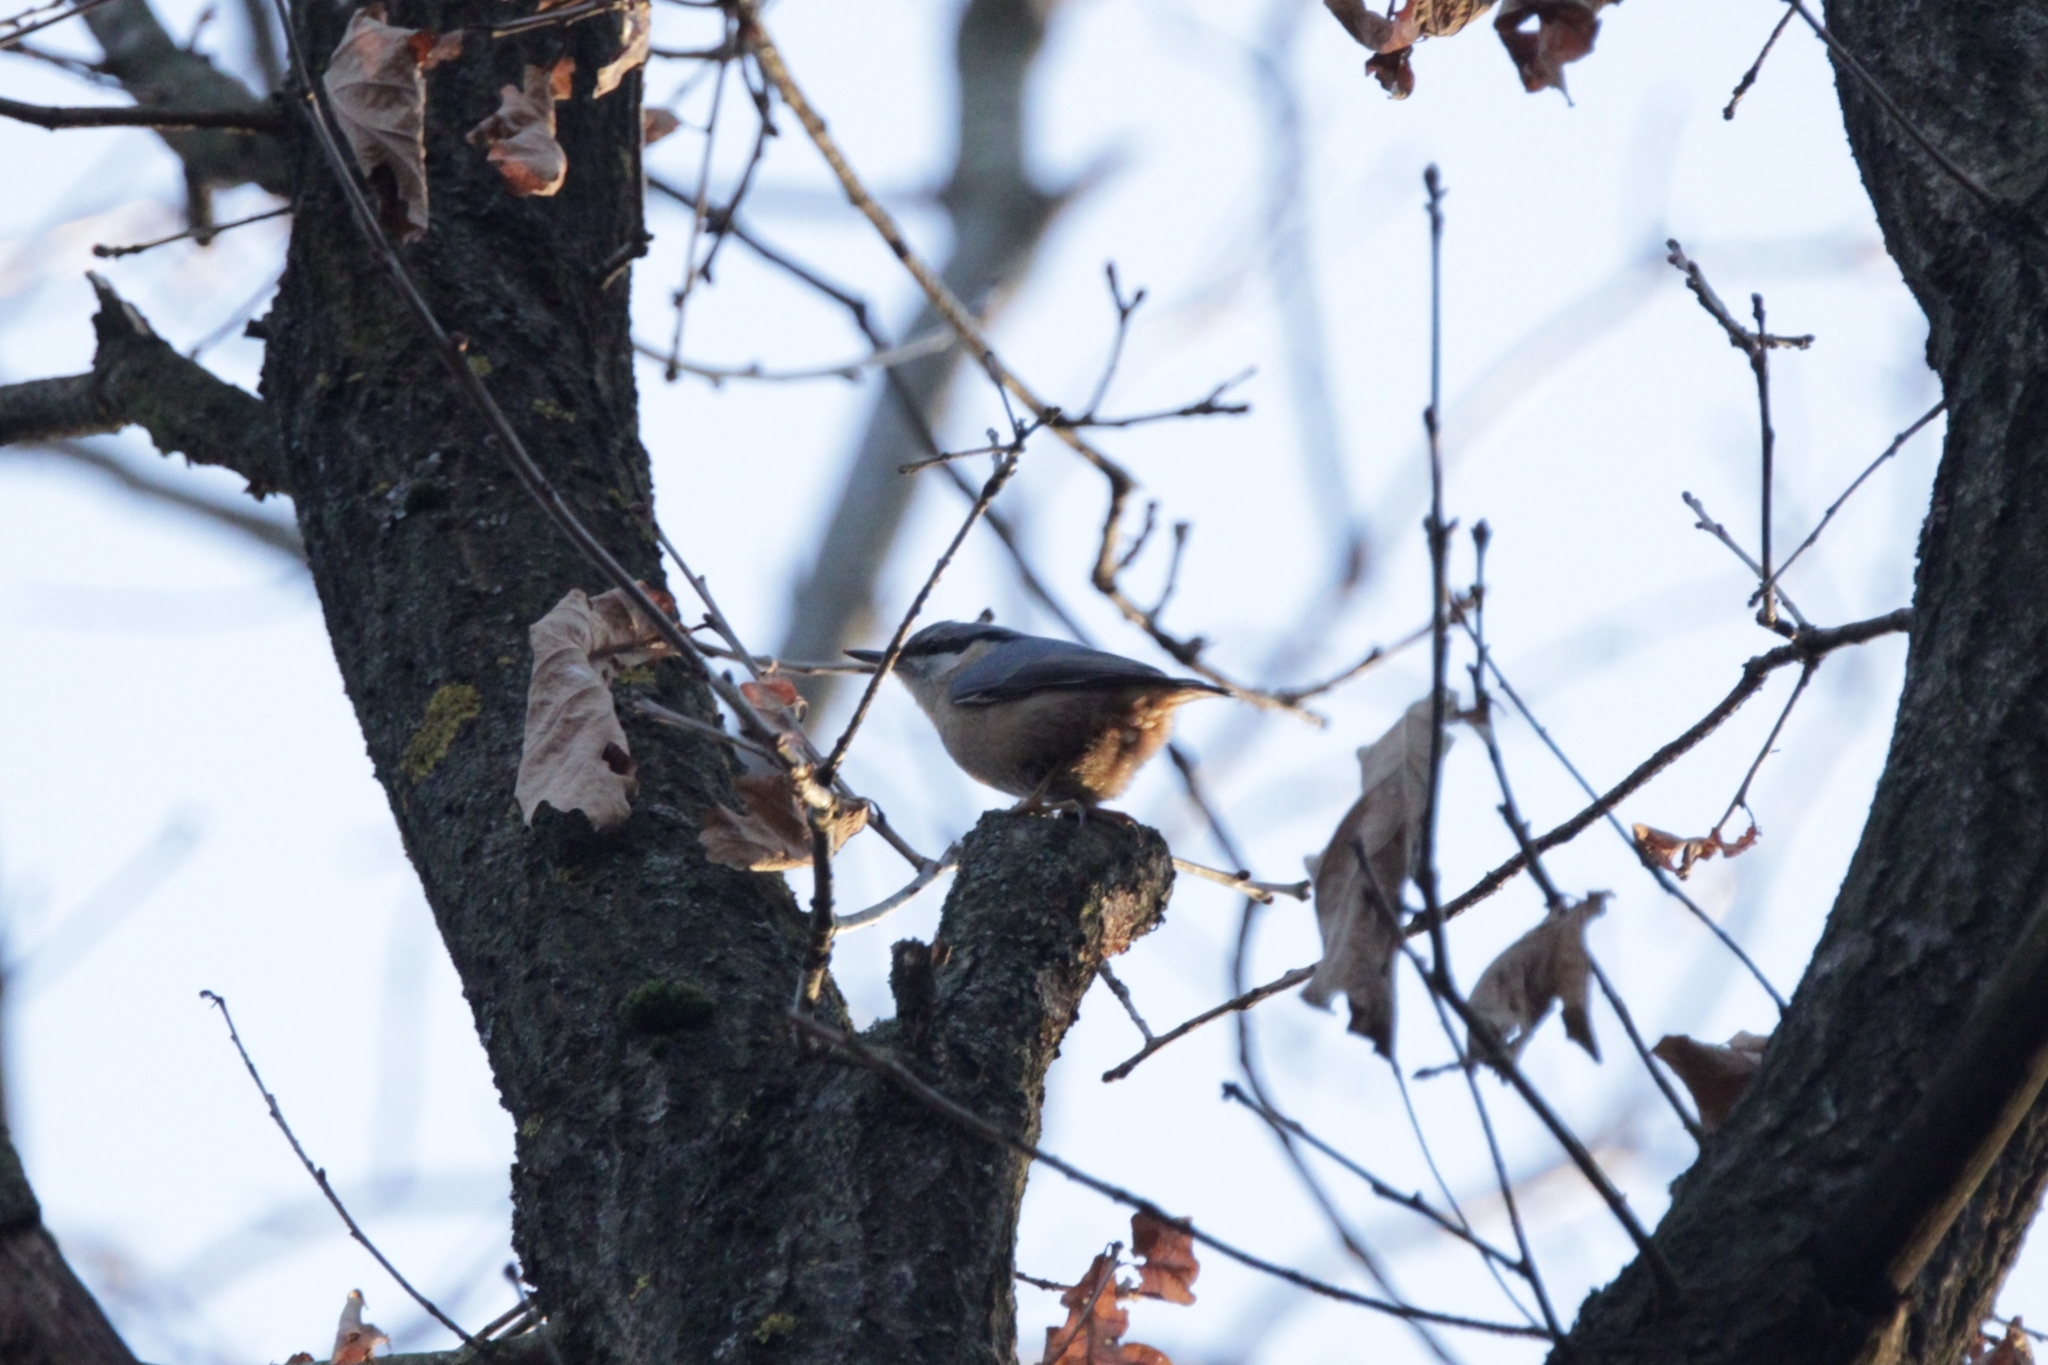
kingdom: Animalia
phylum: Chordata
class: Aves
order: Passeriformes
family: Sittidae
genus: Sitta
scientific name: Sitta europaea
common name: Eurasian nuthatch
